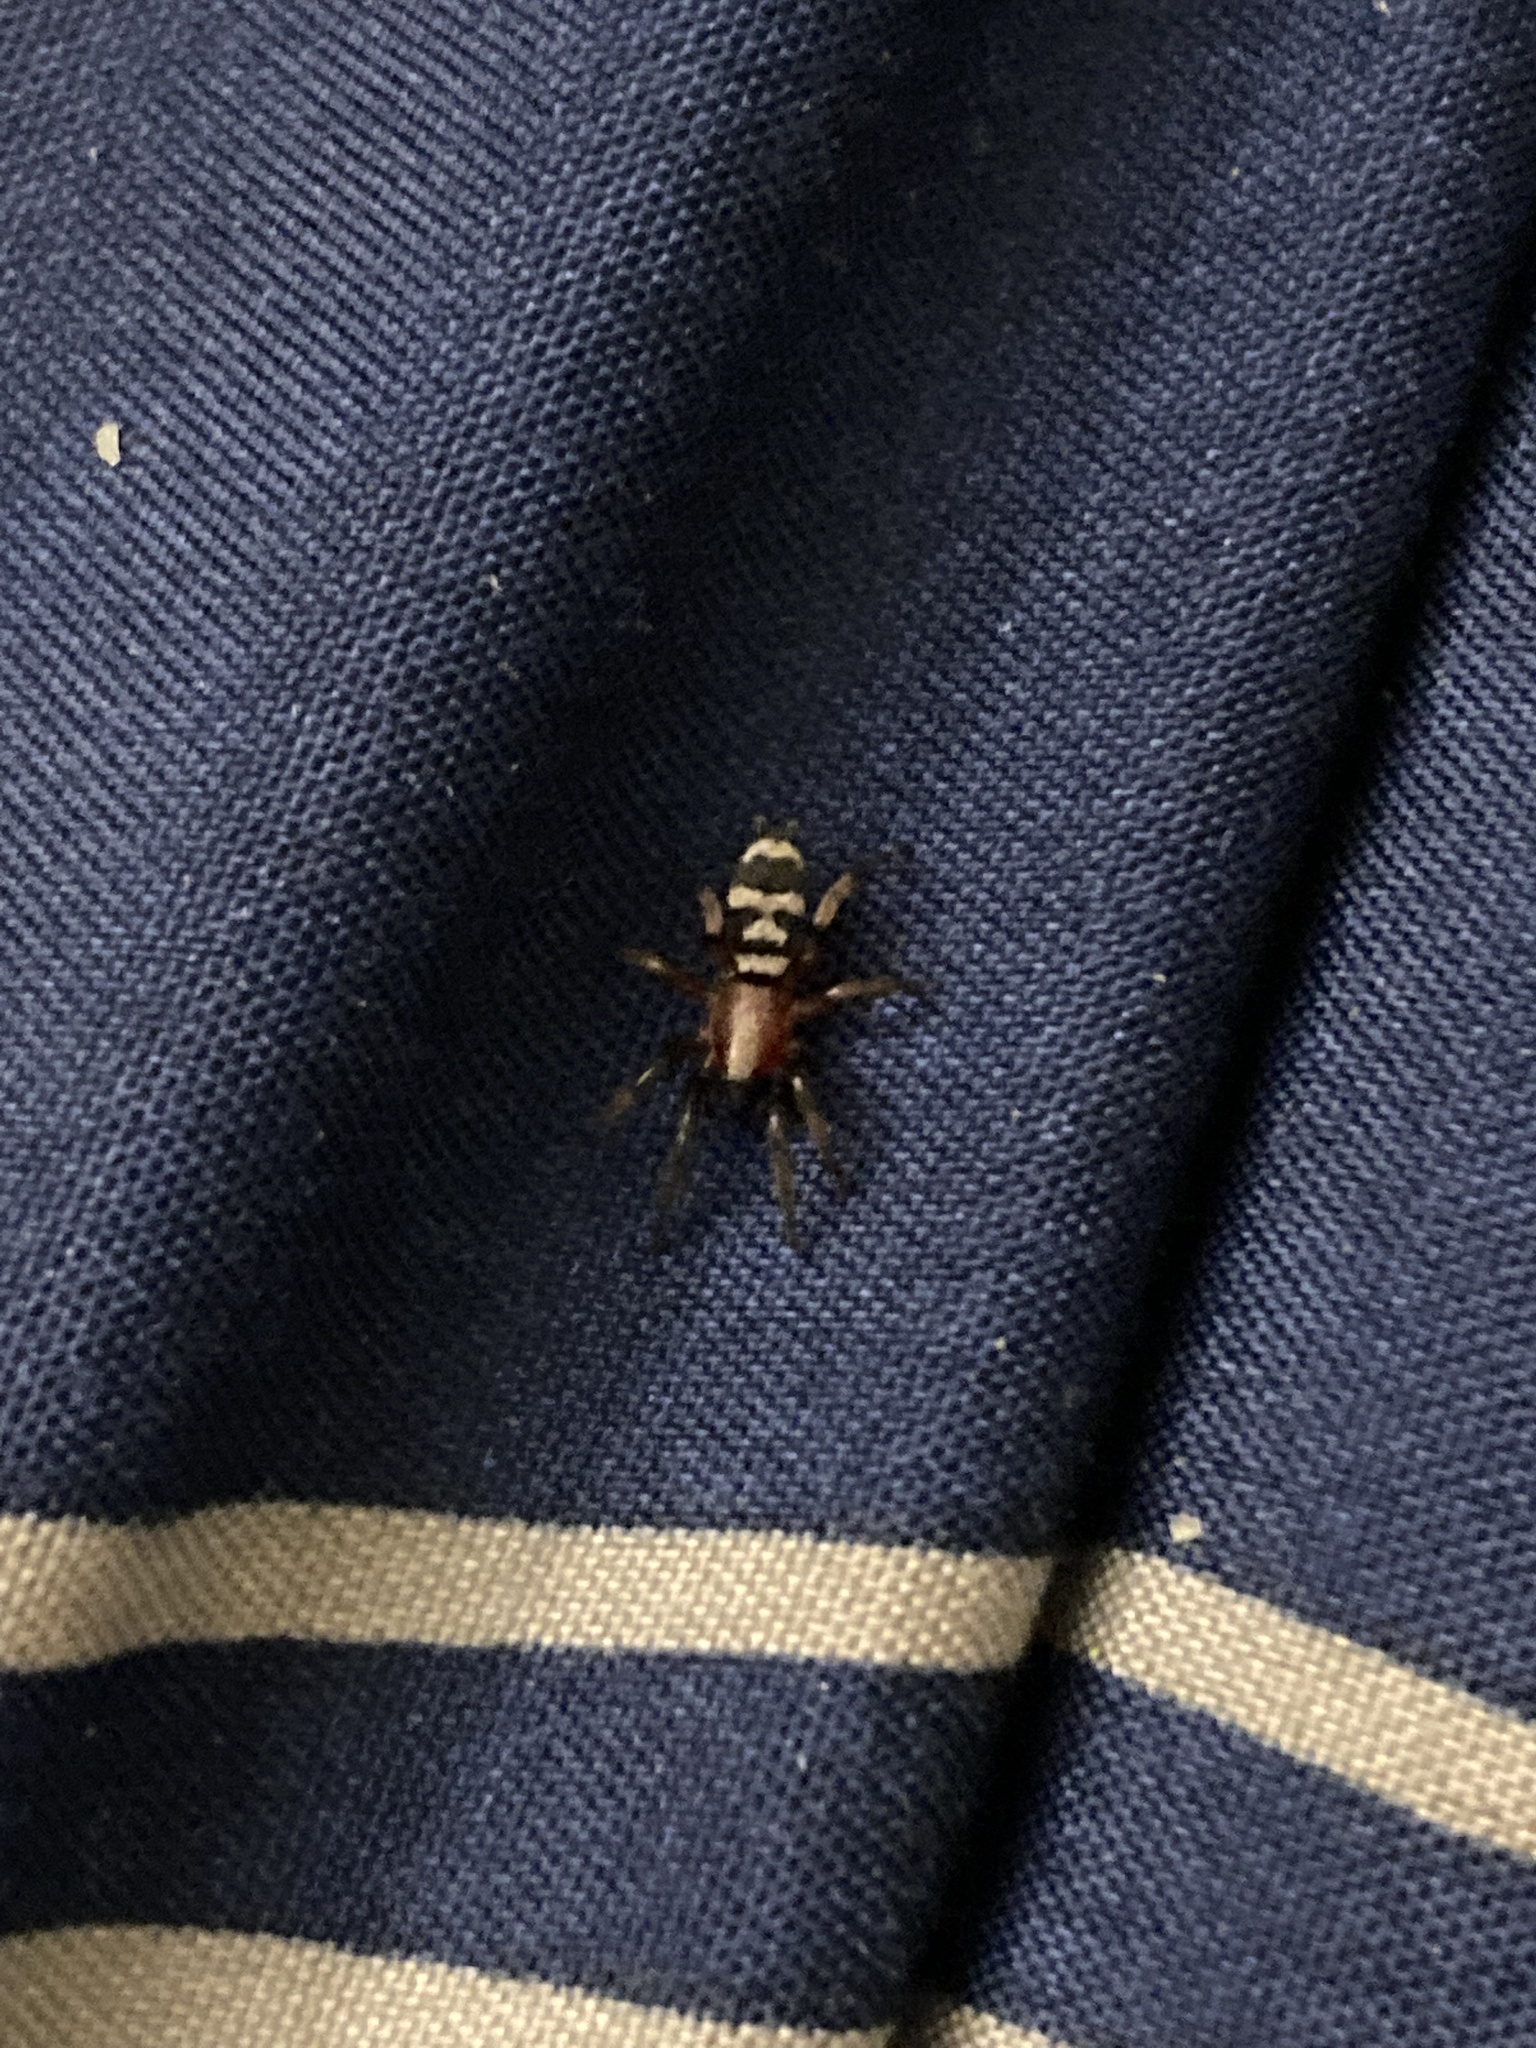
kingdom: Animalia
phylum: Arthropoda
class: Arachnida
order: Araneae
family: Gnaphosidae
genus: Sergiolus
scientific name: Sergiolus capulatus
